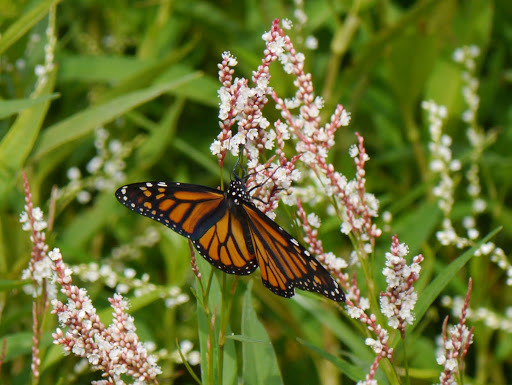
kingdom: Animalia
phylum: Arthropoda
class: Insecta
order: Lepidoptera
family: Nymphalidae
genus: Danaus
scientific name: Danaus plexippus
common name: Monarch
